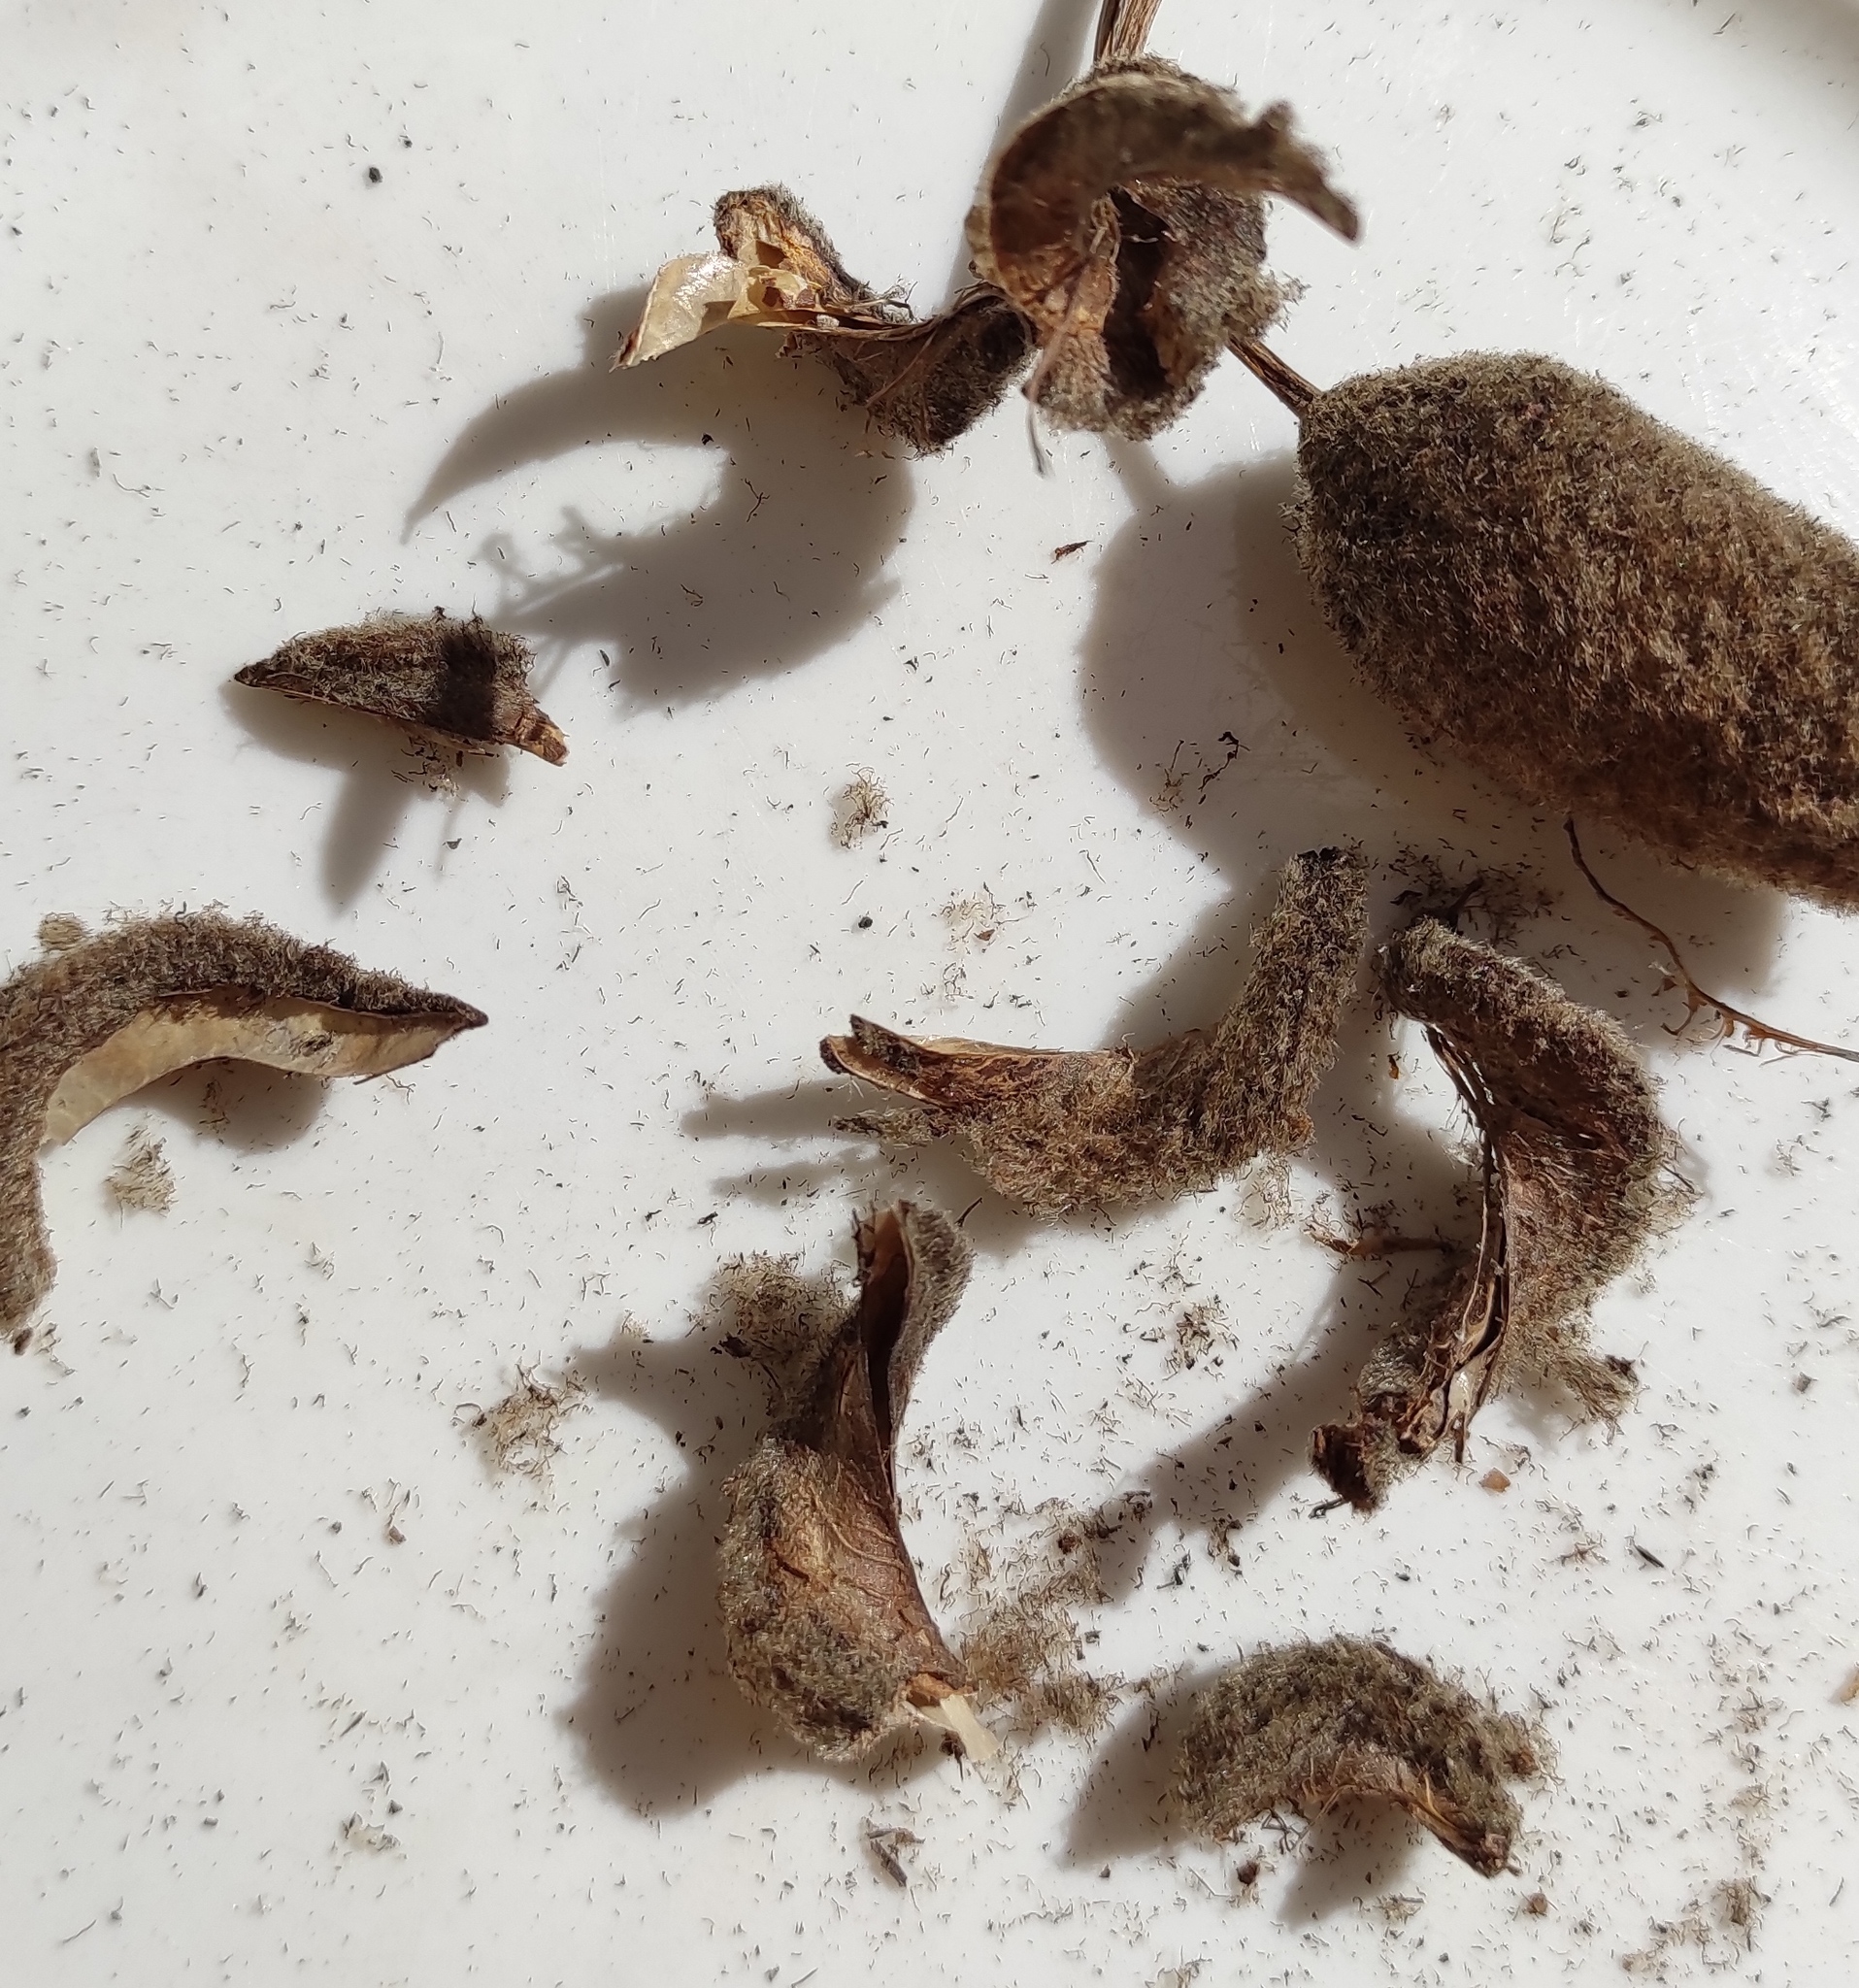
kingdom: Plantae
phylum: Tracheophyta
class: Magnoliopsida
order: Malvales
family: Malvaceae
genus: Helicteres
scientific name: Helicteres jamaicensis
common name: Cowbush
